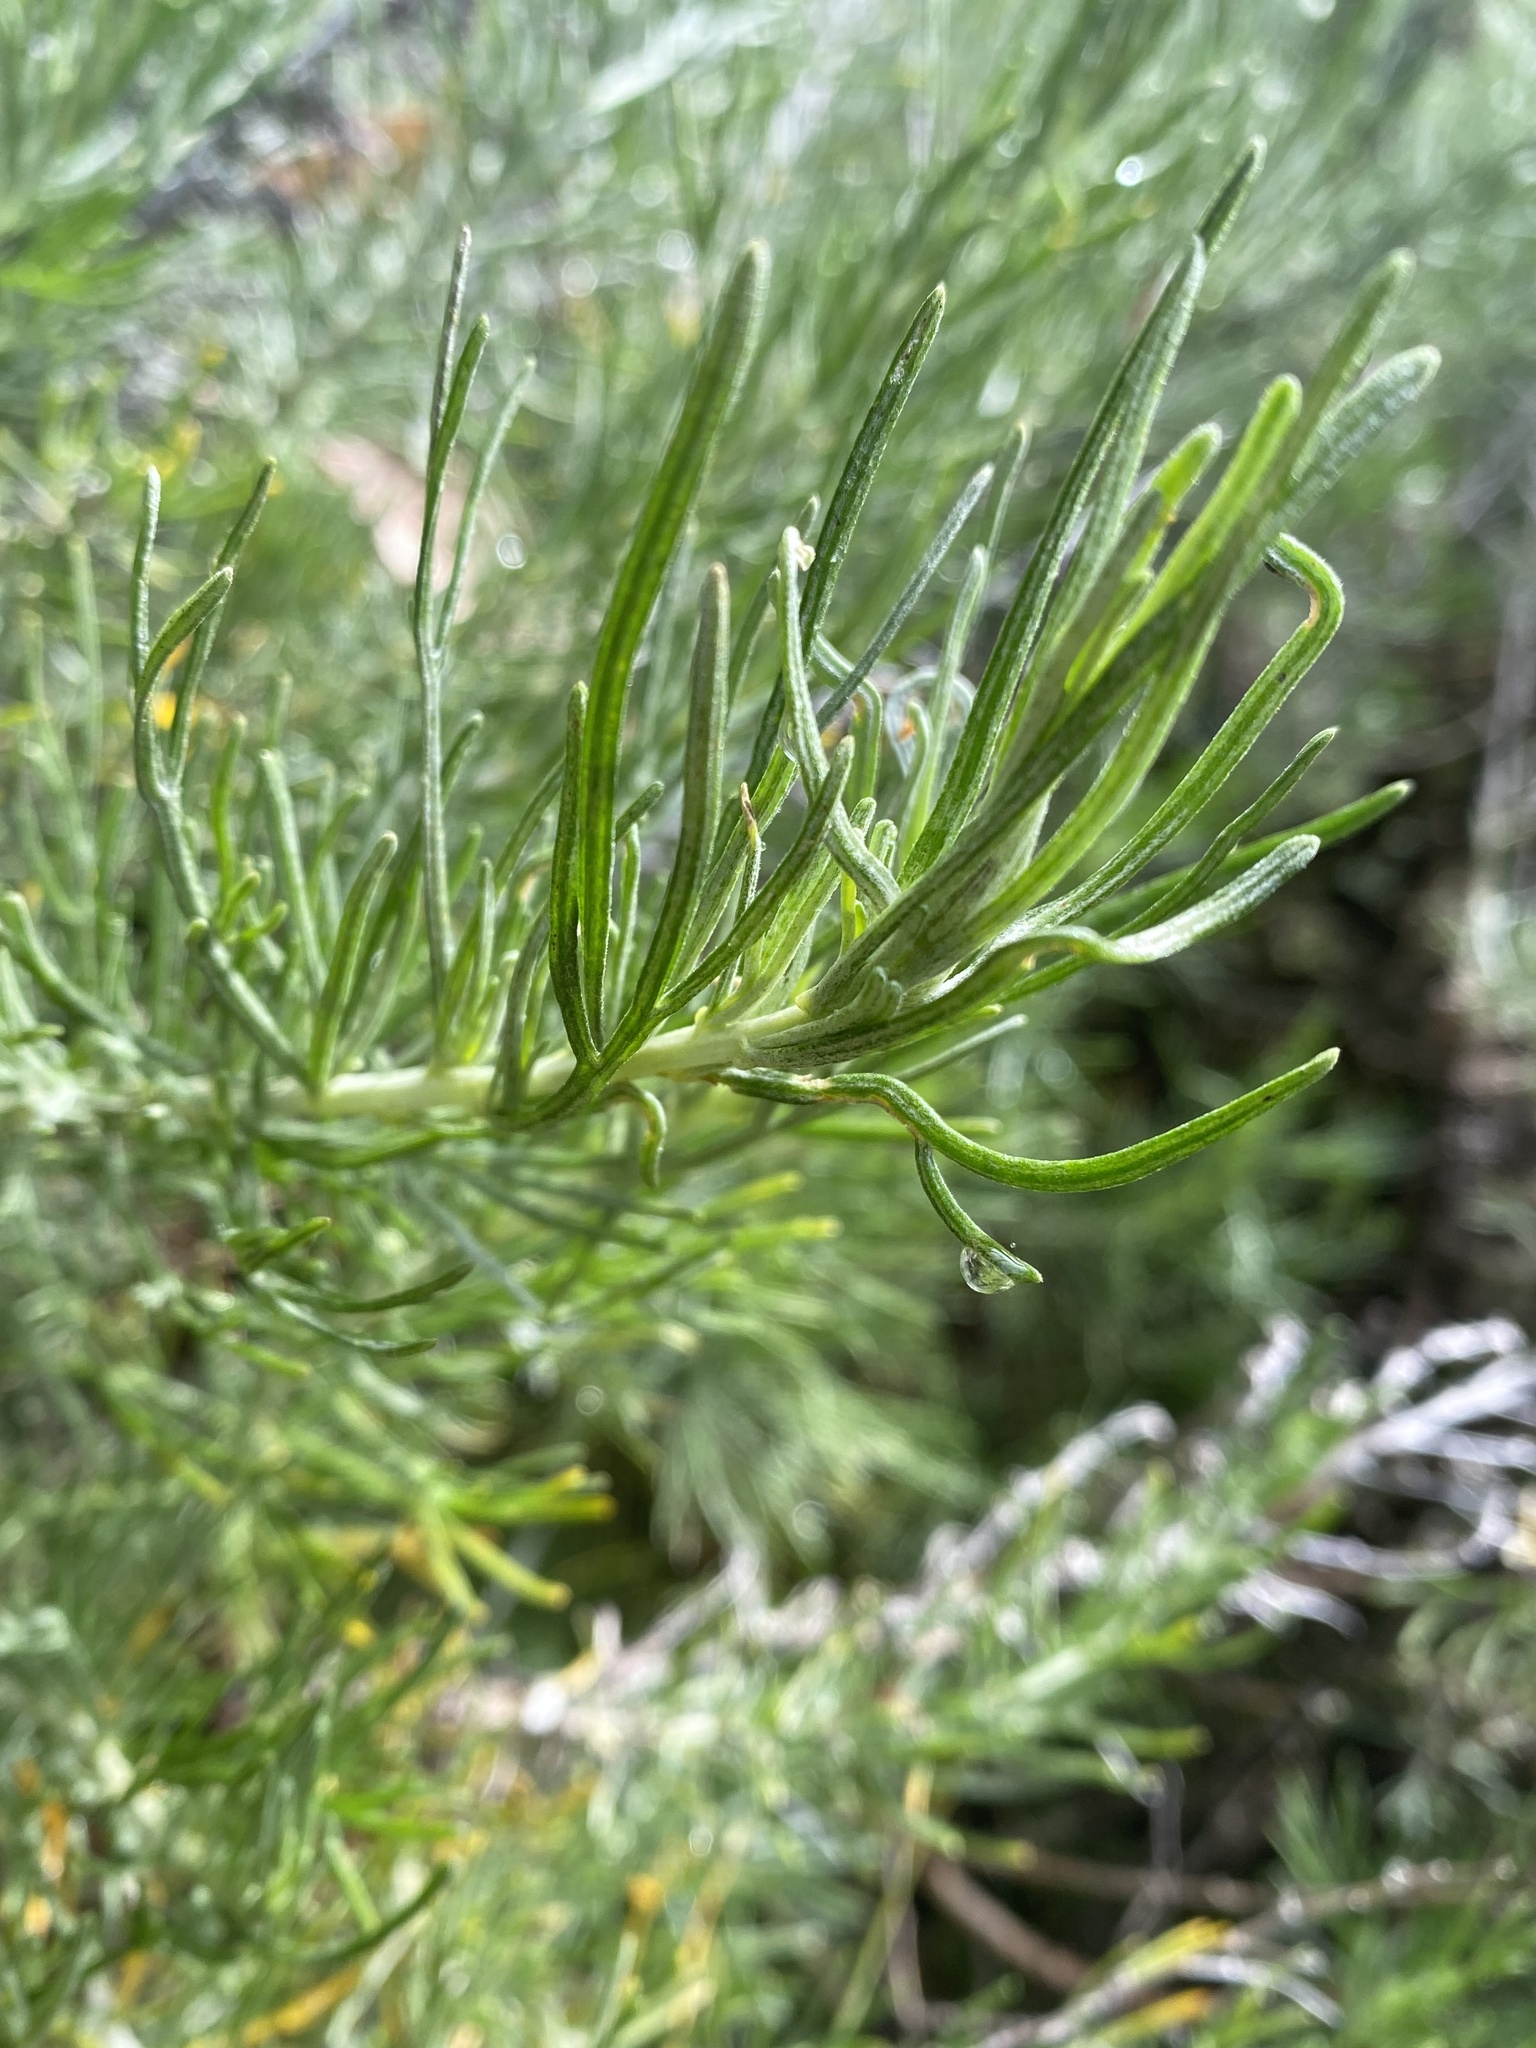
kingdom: Plantae
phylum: Tracheophyta
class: Magnoliopsida
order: Asterales
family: Asteraceae
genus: Artemisia
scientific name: Artemisia californica
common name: California sagebrush
